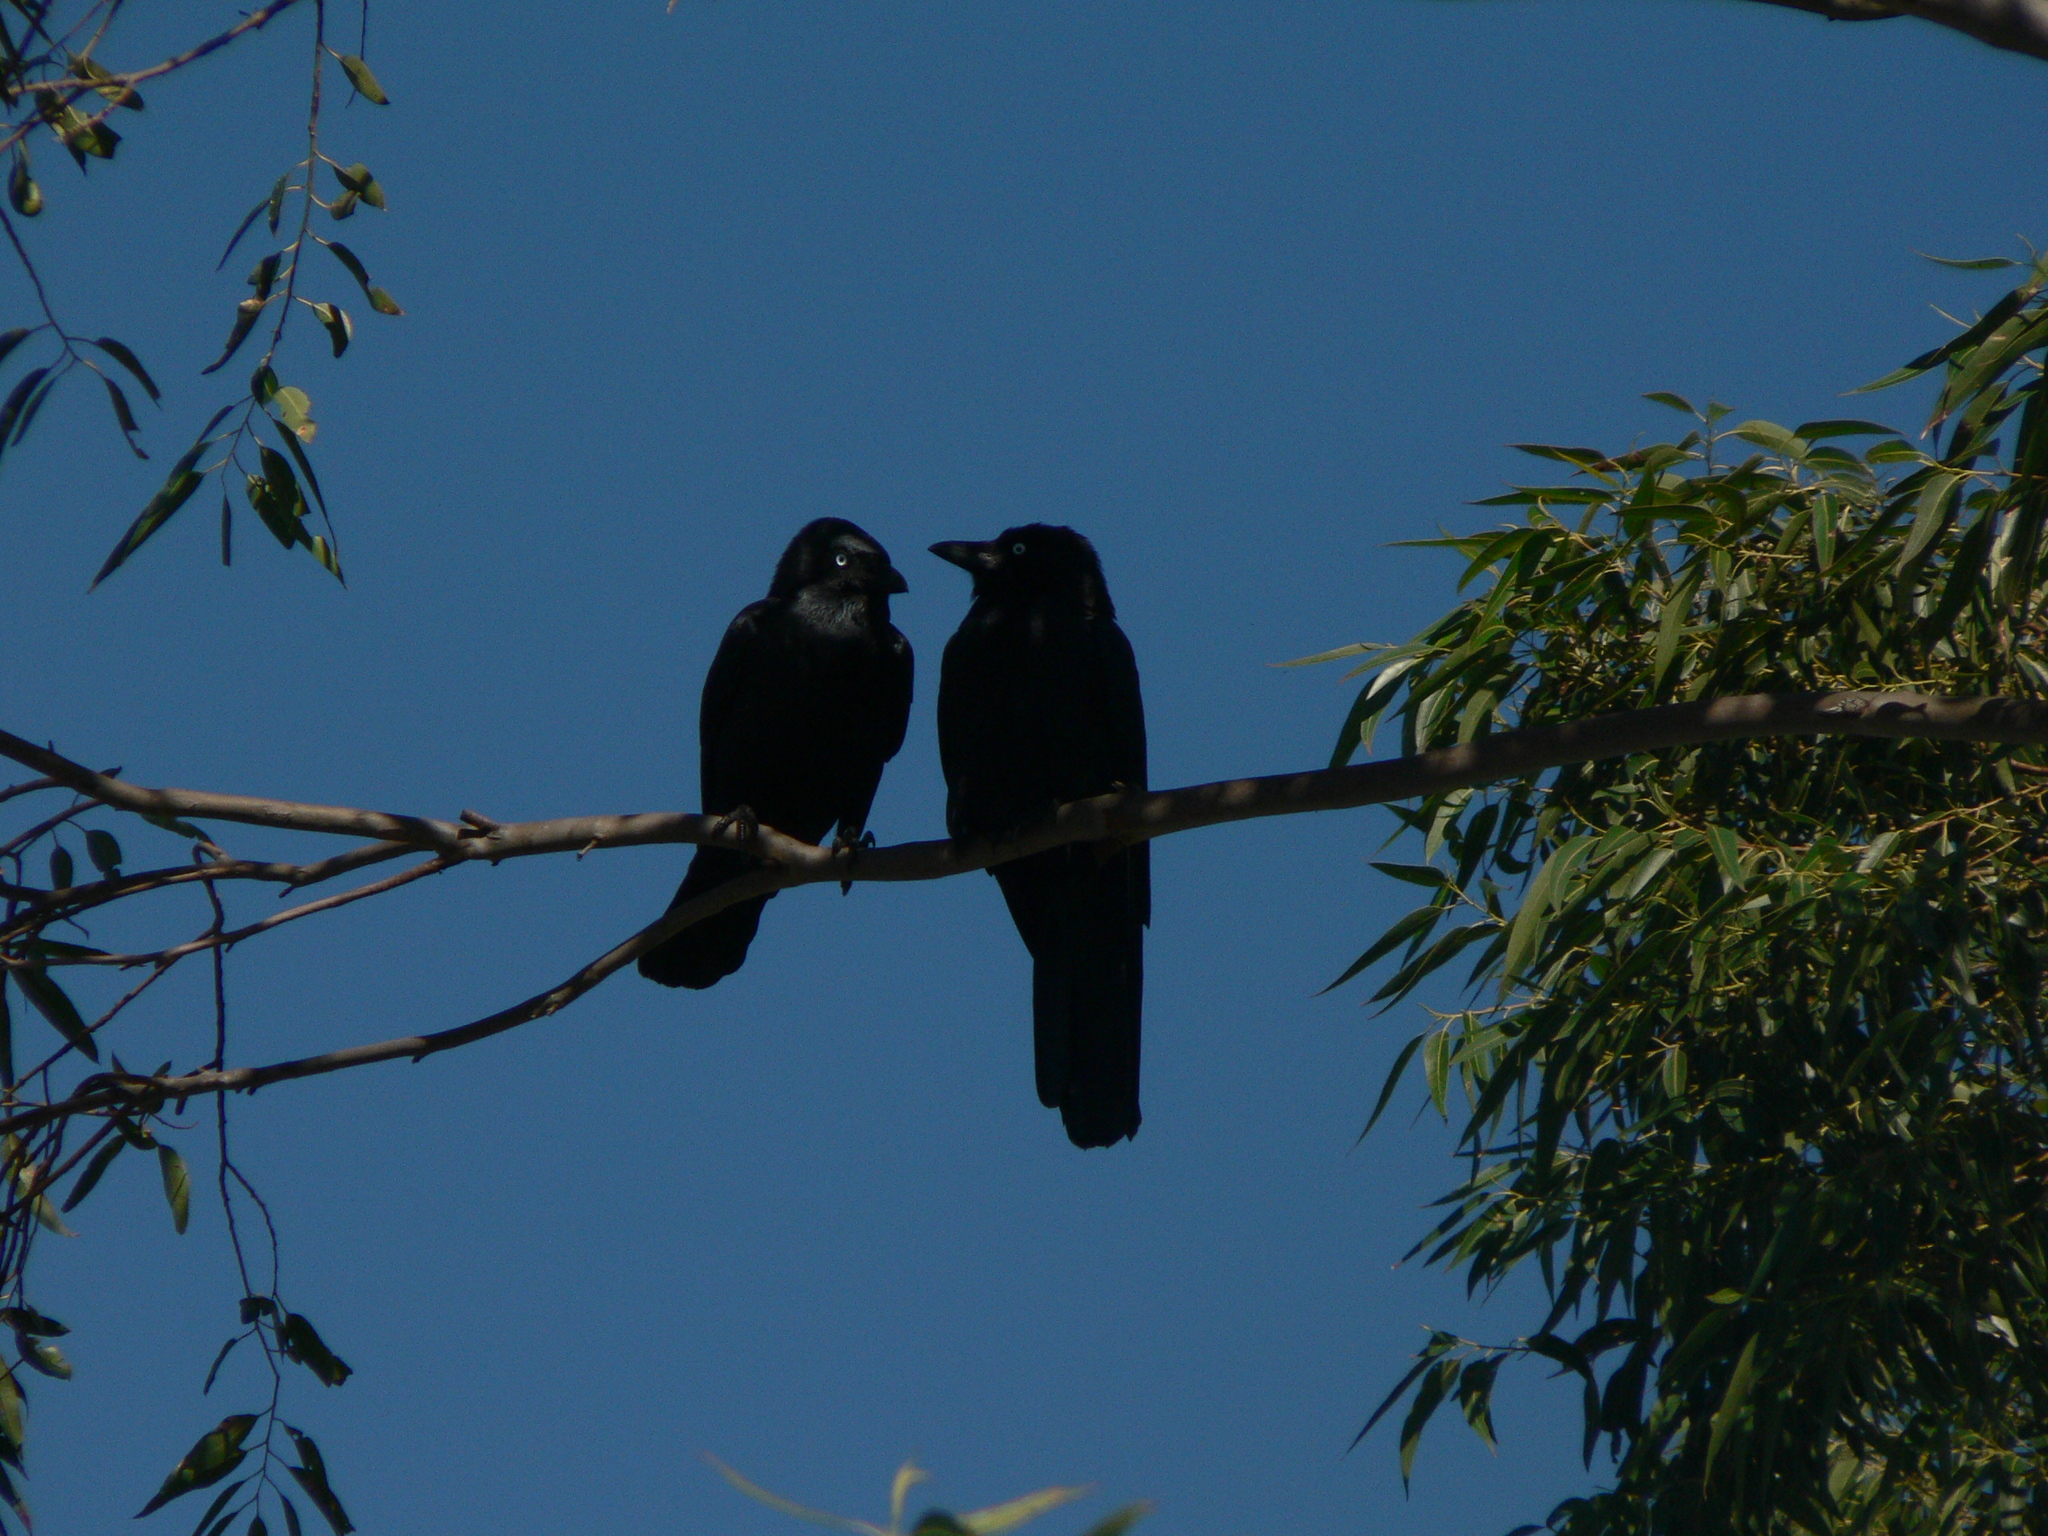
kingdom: Animalia
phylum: Chordata
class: Aves
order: Passeriformes
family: Corvidae
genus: Corvus
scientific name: Corvus orru
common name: Torresian crow
